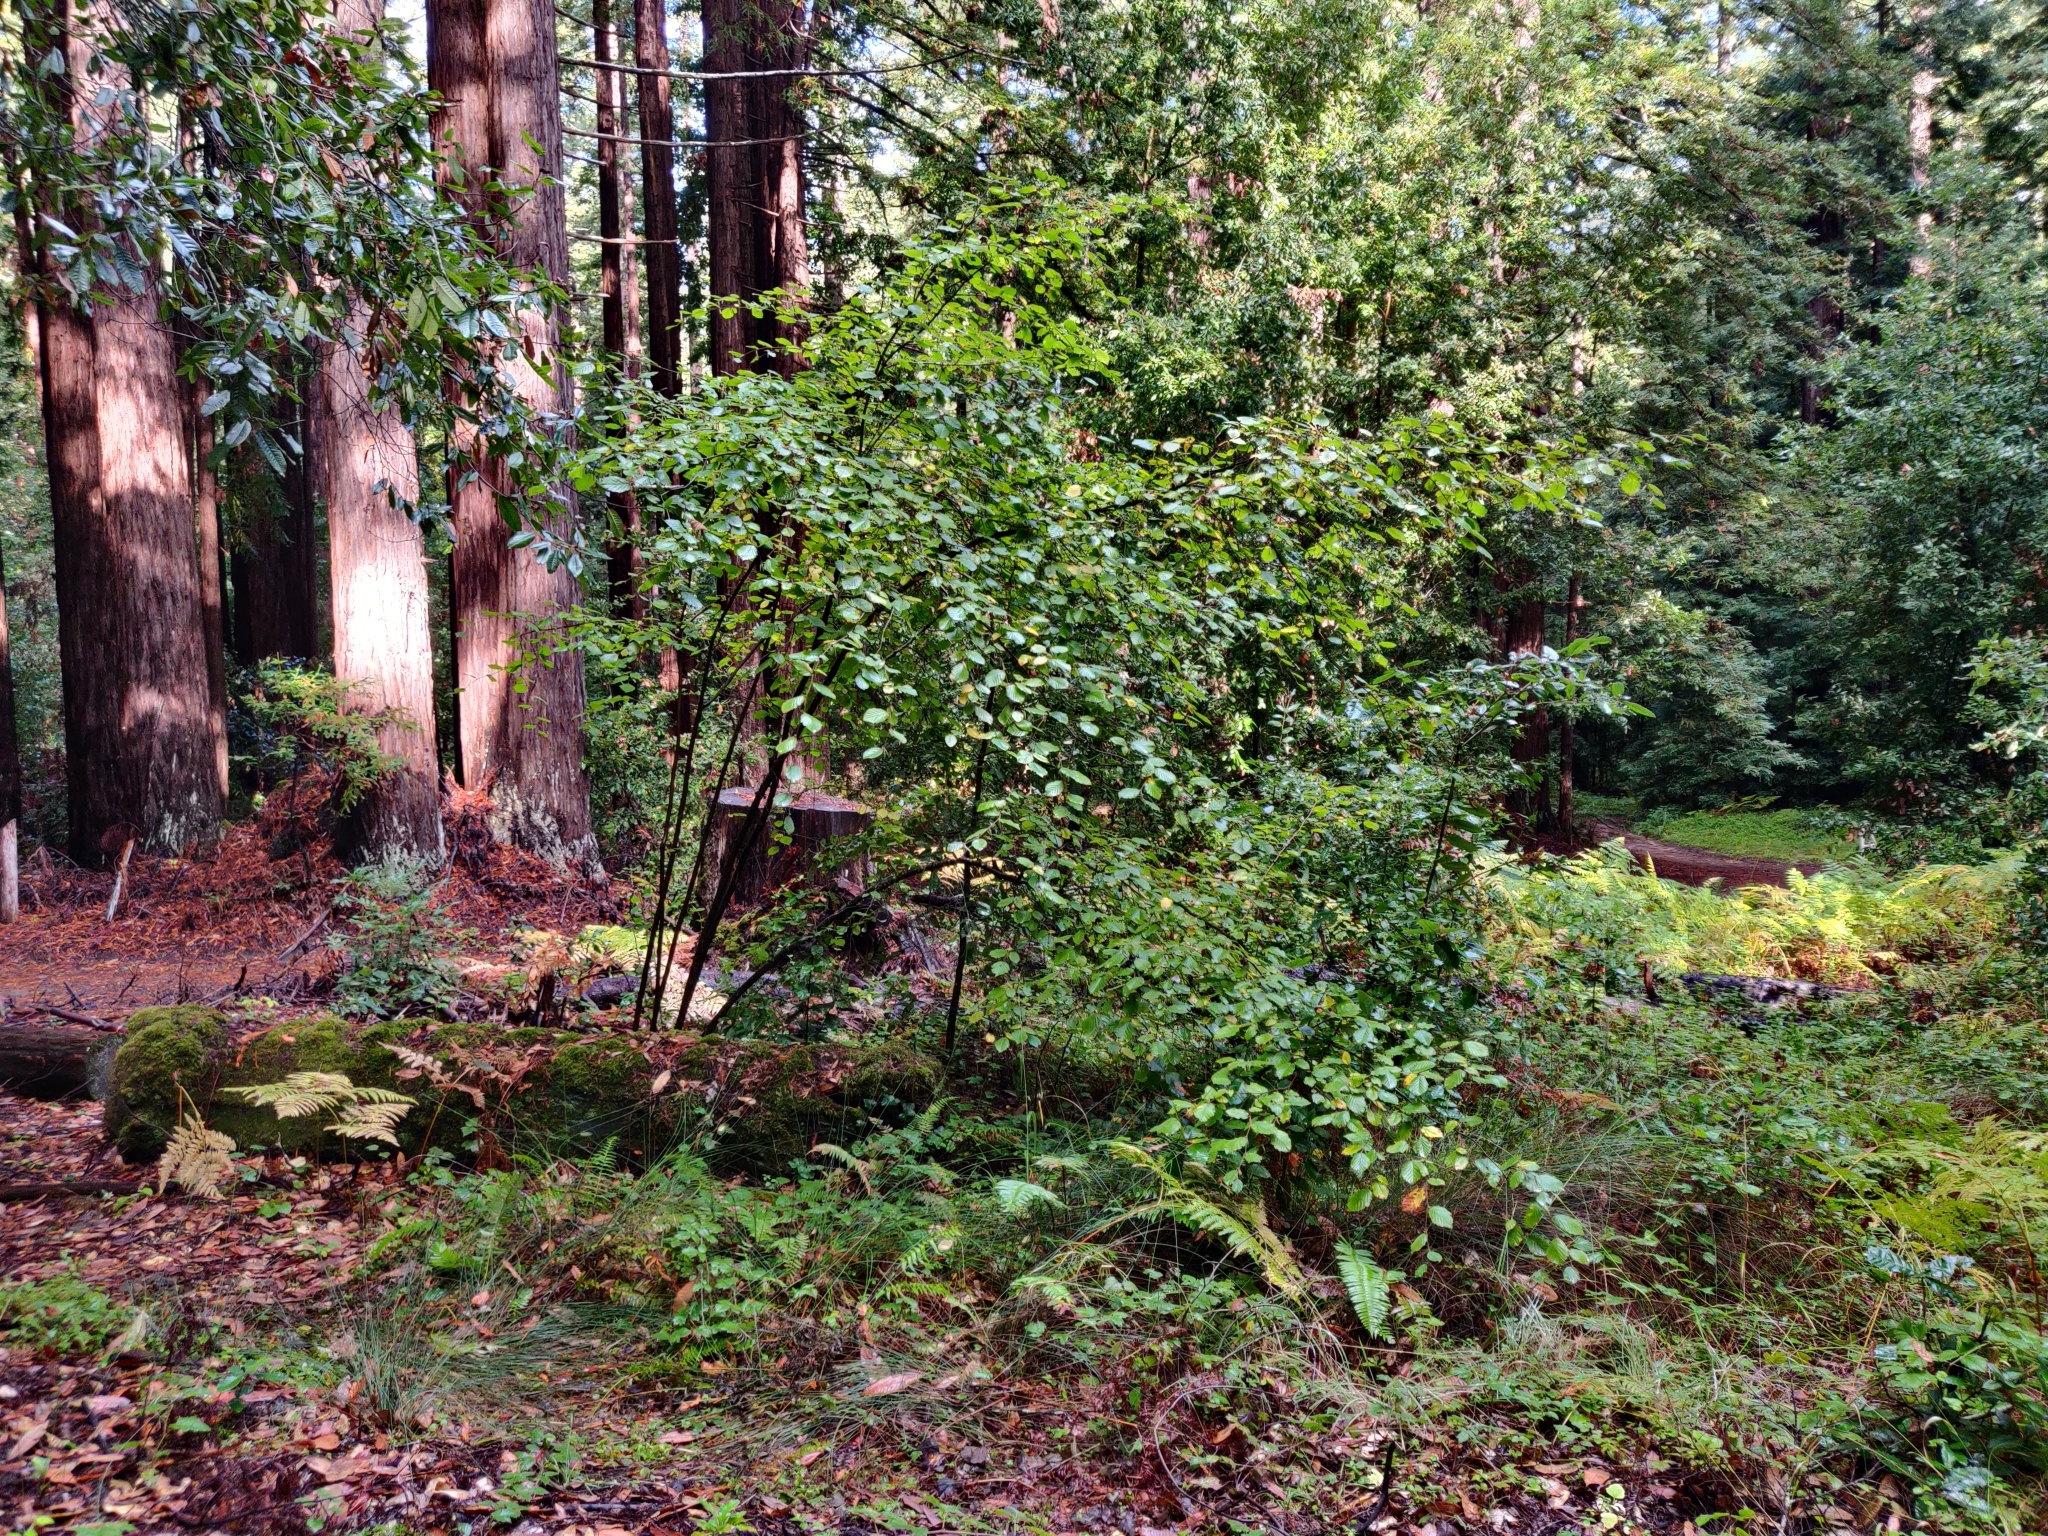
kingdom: Plantae
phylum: Tracheophyta
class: Magnoliopsida
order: Fagales
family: Betulaceae
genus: Corylus
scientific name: Corylus cornuta
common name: Beaked hazel
